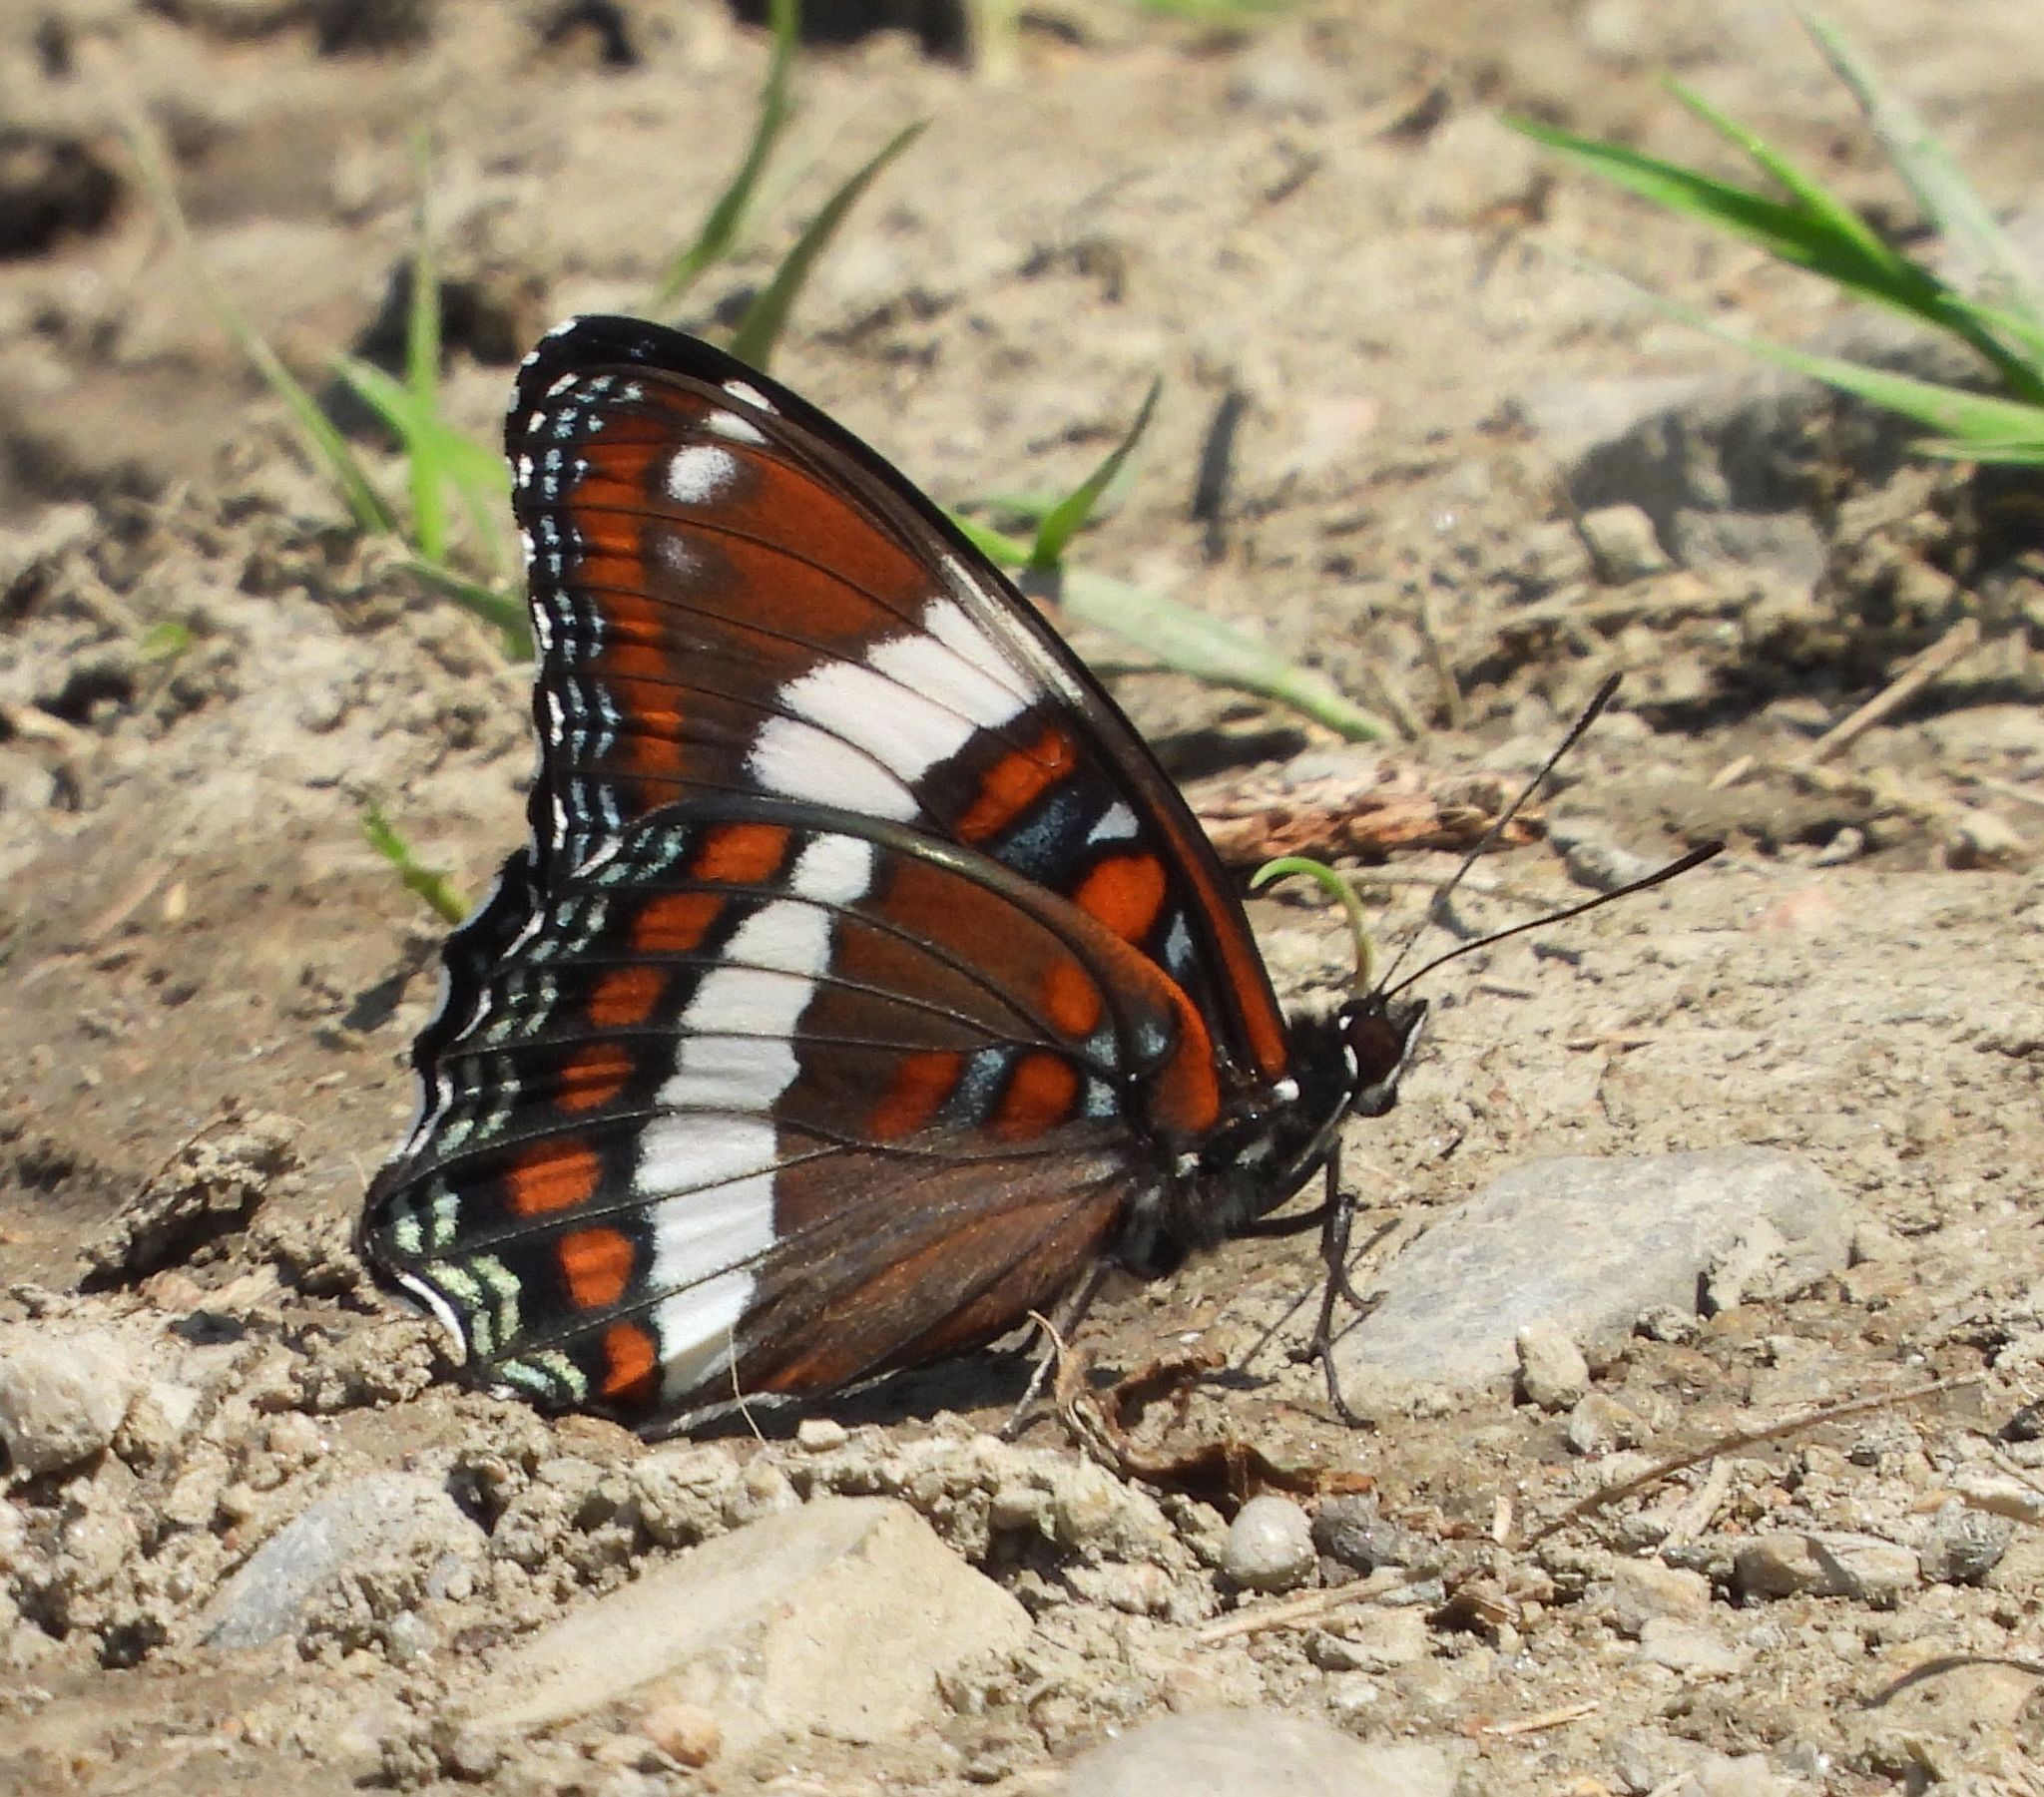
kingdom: Animalia
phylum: Arthropoda
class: Insecta
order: Lepidoptera
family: Nymphalidae
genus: Limenitis
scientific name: Limenitis arthemis
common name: Red-spotted admiral
